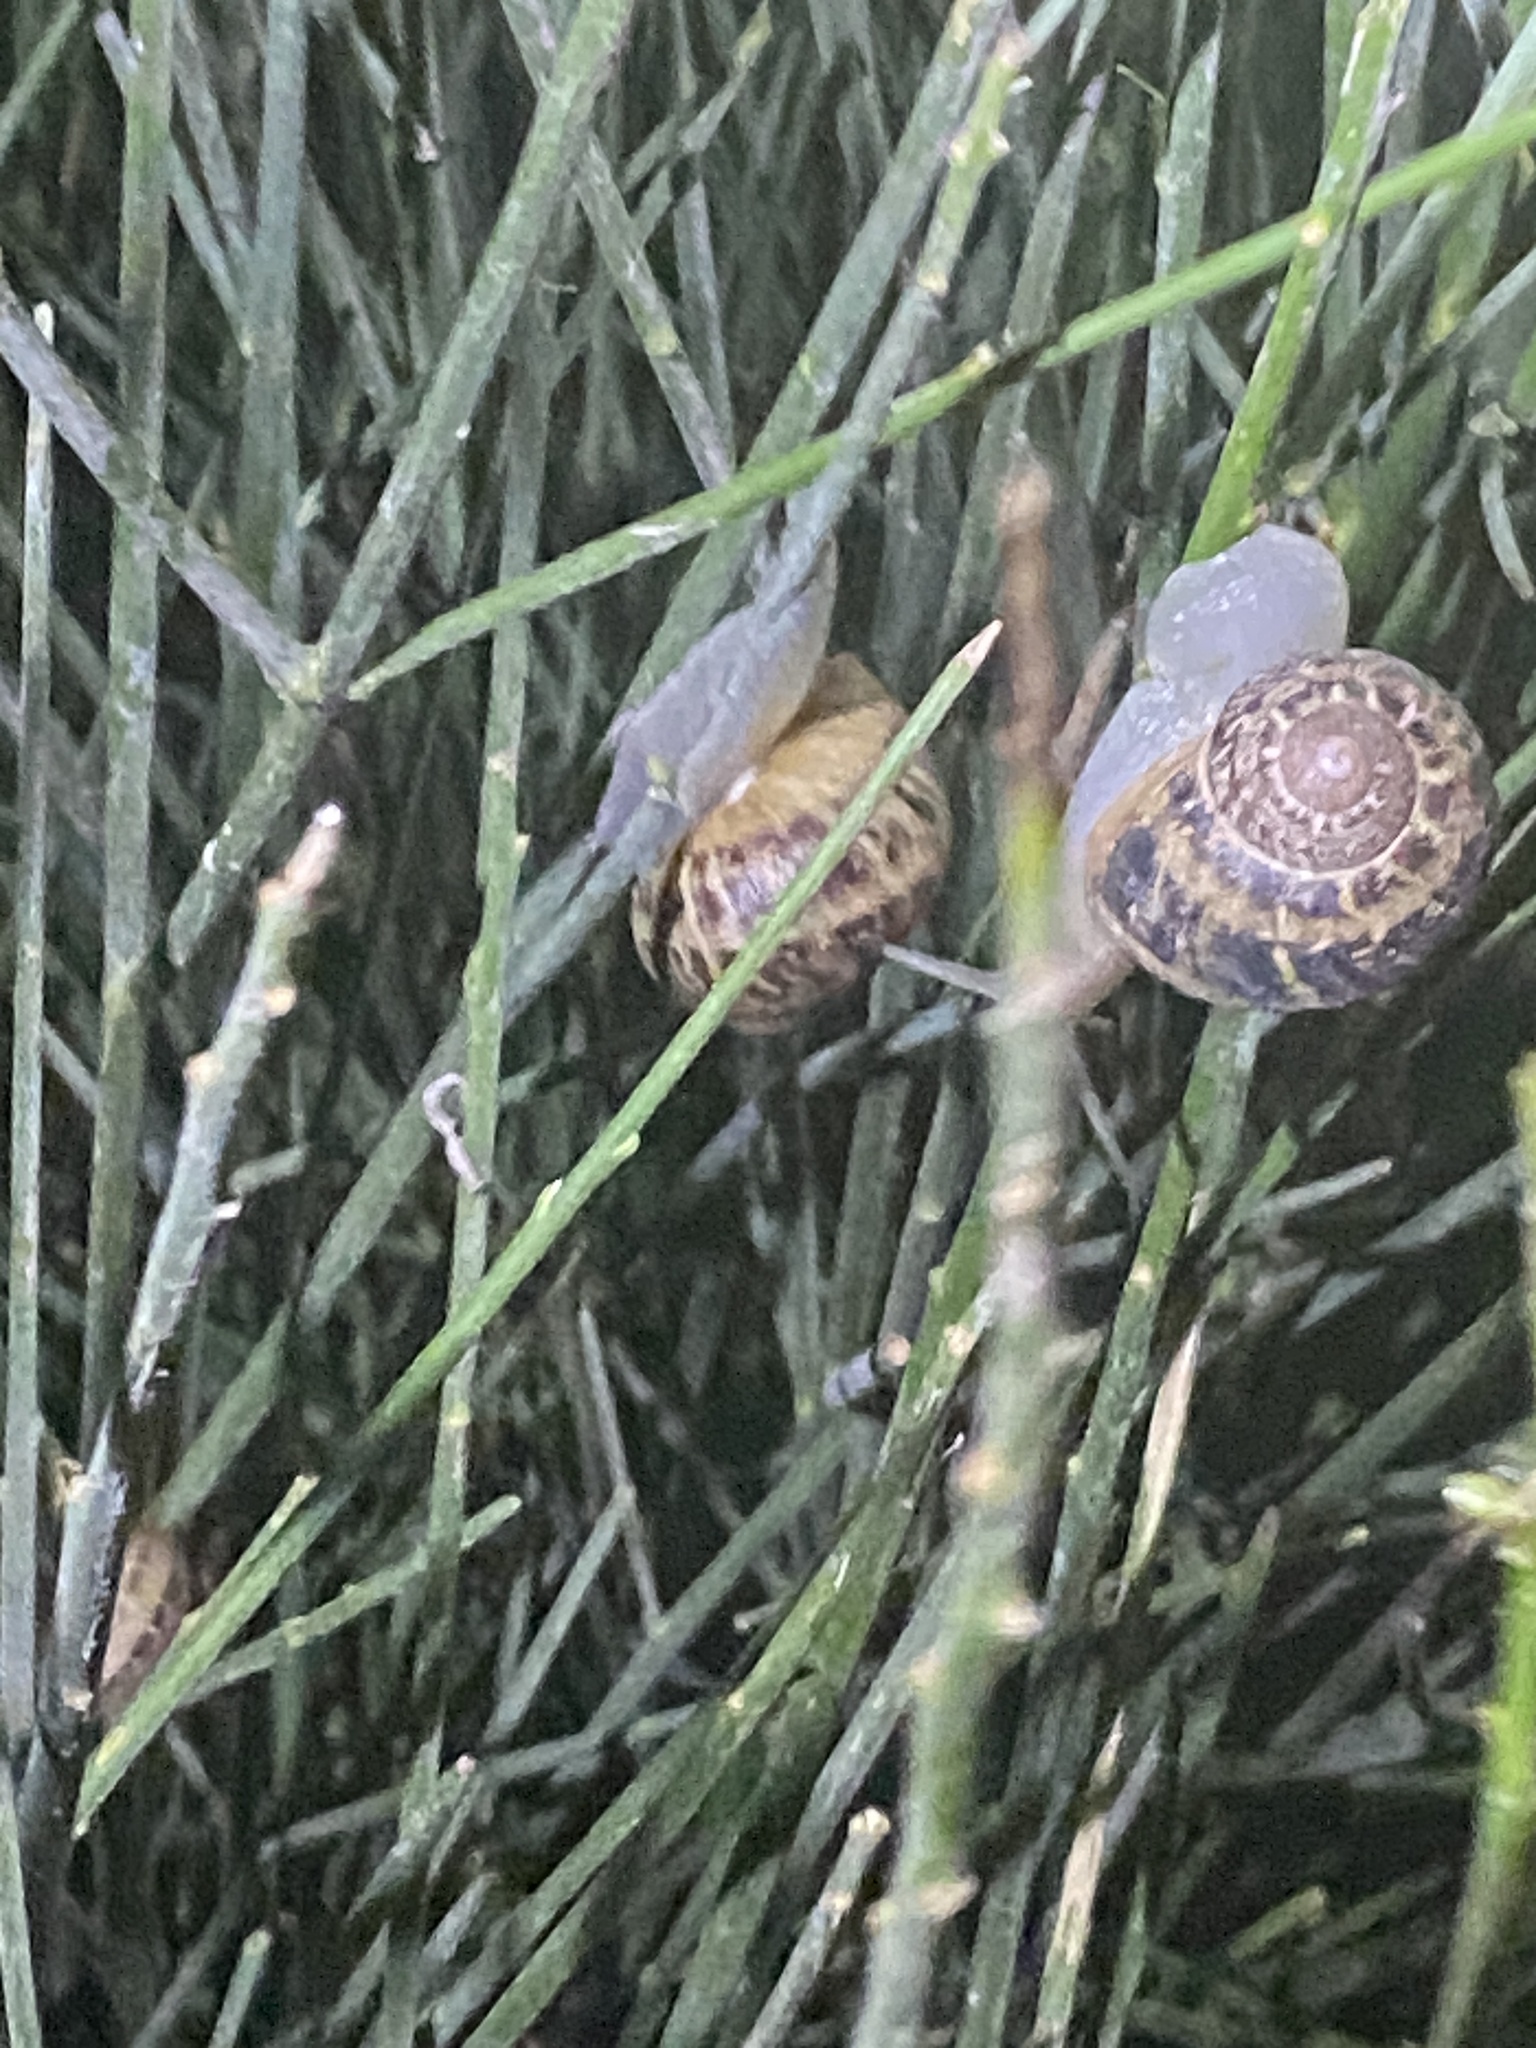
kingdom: Animalia
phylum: Mollusca
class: Gastropoda
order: Stylommatophora
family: Helicidae
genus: Cornu
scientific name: Cornu aspersum
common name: Brown garden snail
